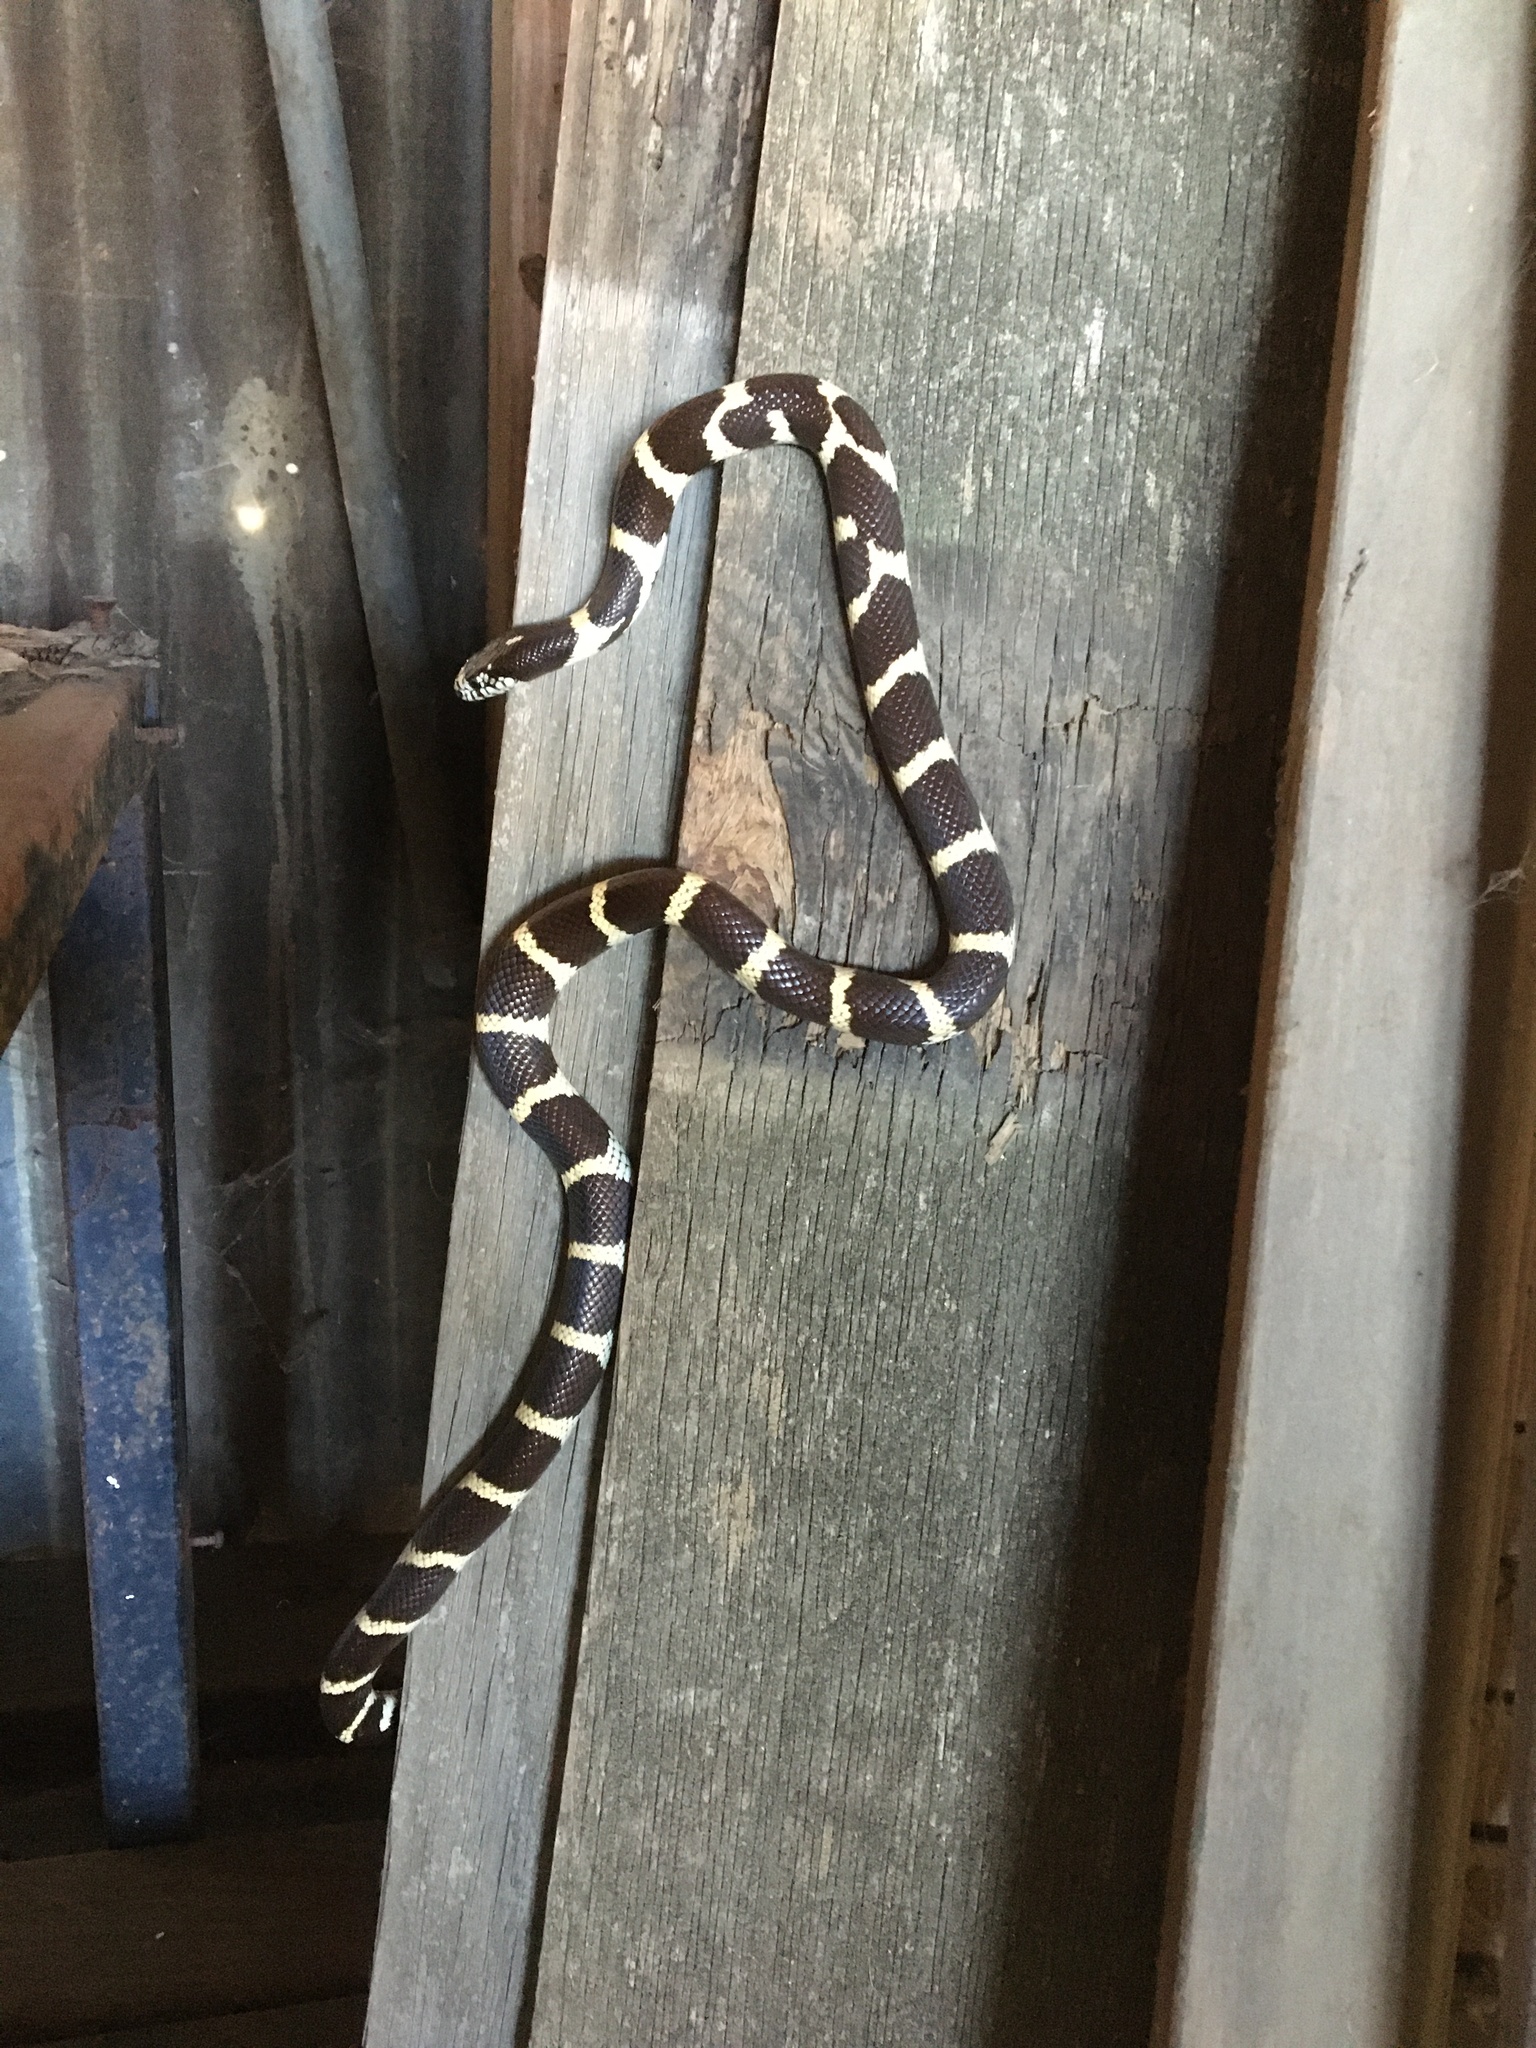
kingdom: Animalia
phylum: Chordata
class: Squamata
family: Colubridae
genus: Lampropeltis
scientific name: Lampropeltis californiae
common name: California kingsnake
